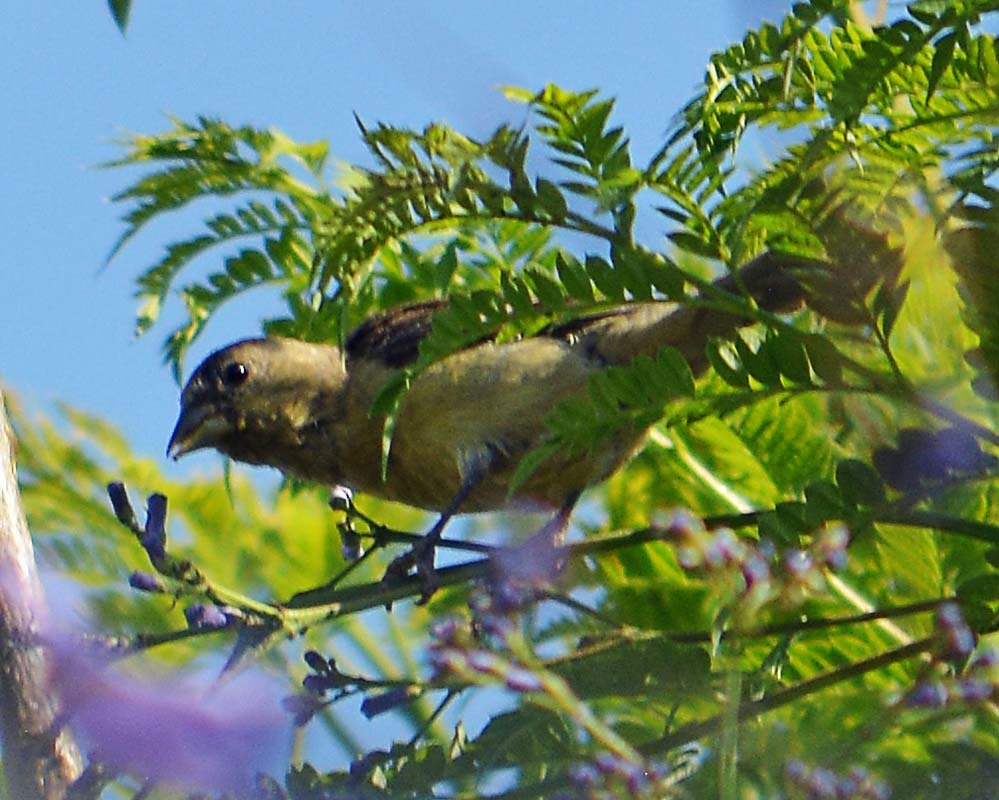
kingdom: Animalia
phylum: Chordata
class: Aves
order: Passeriformes
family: Fringillidae
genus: Spinus
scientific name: Spinus psaltria
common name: Lesser goldfinch
